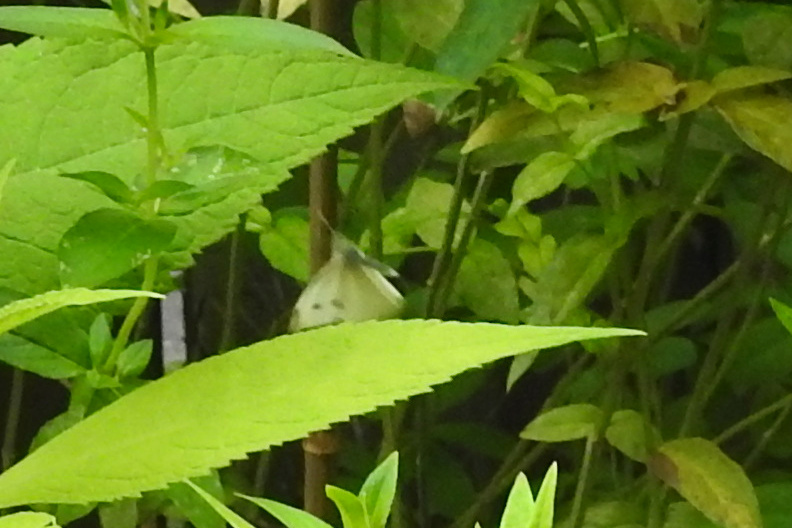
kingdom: Animalia
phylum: Arthropoda
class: Insecta
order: Lepidoptera
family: Pieridae
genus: Pieris
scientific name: Pieris rapae
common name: Small white
